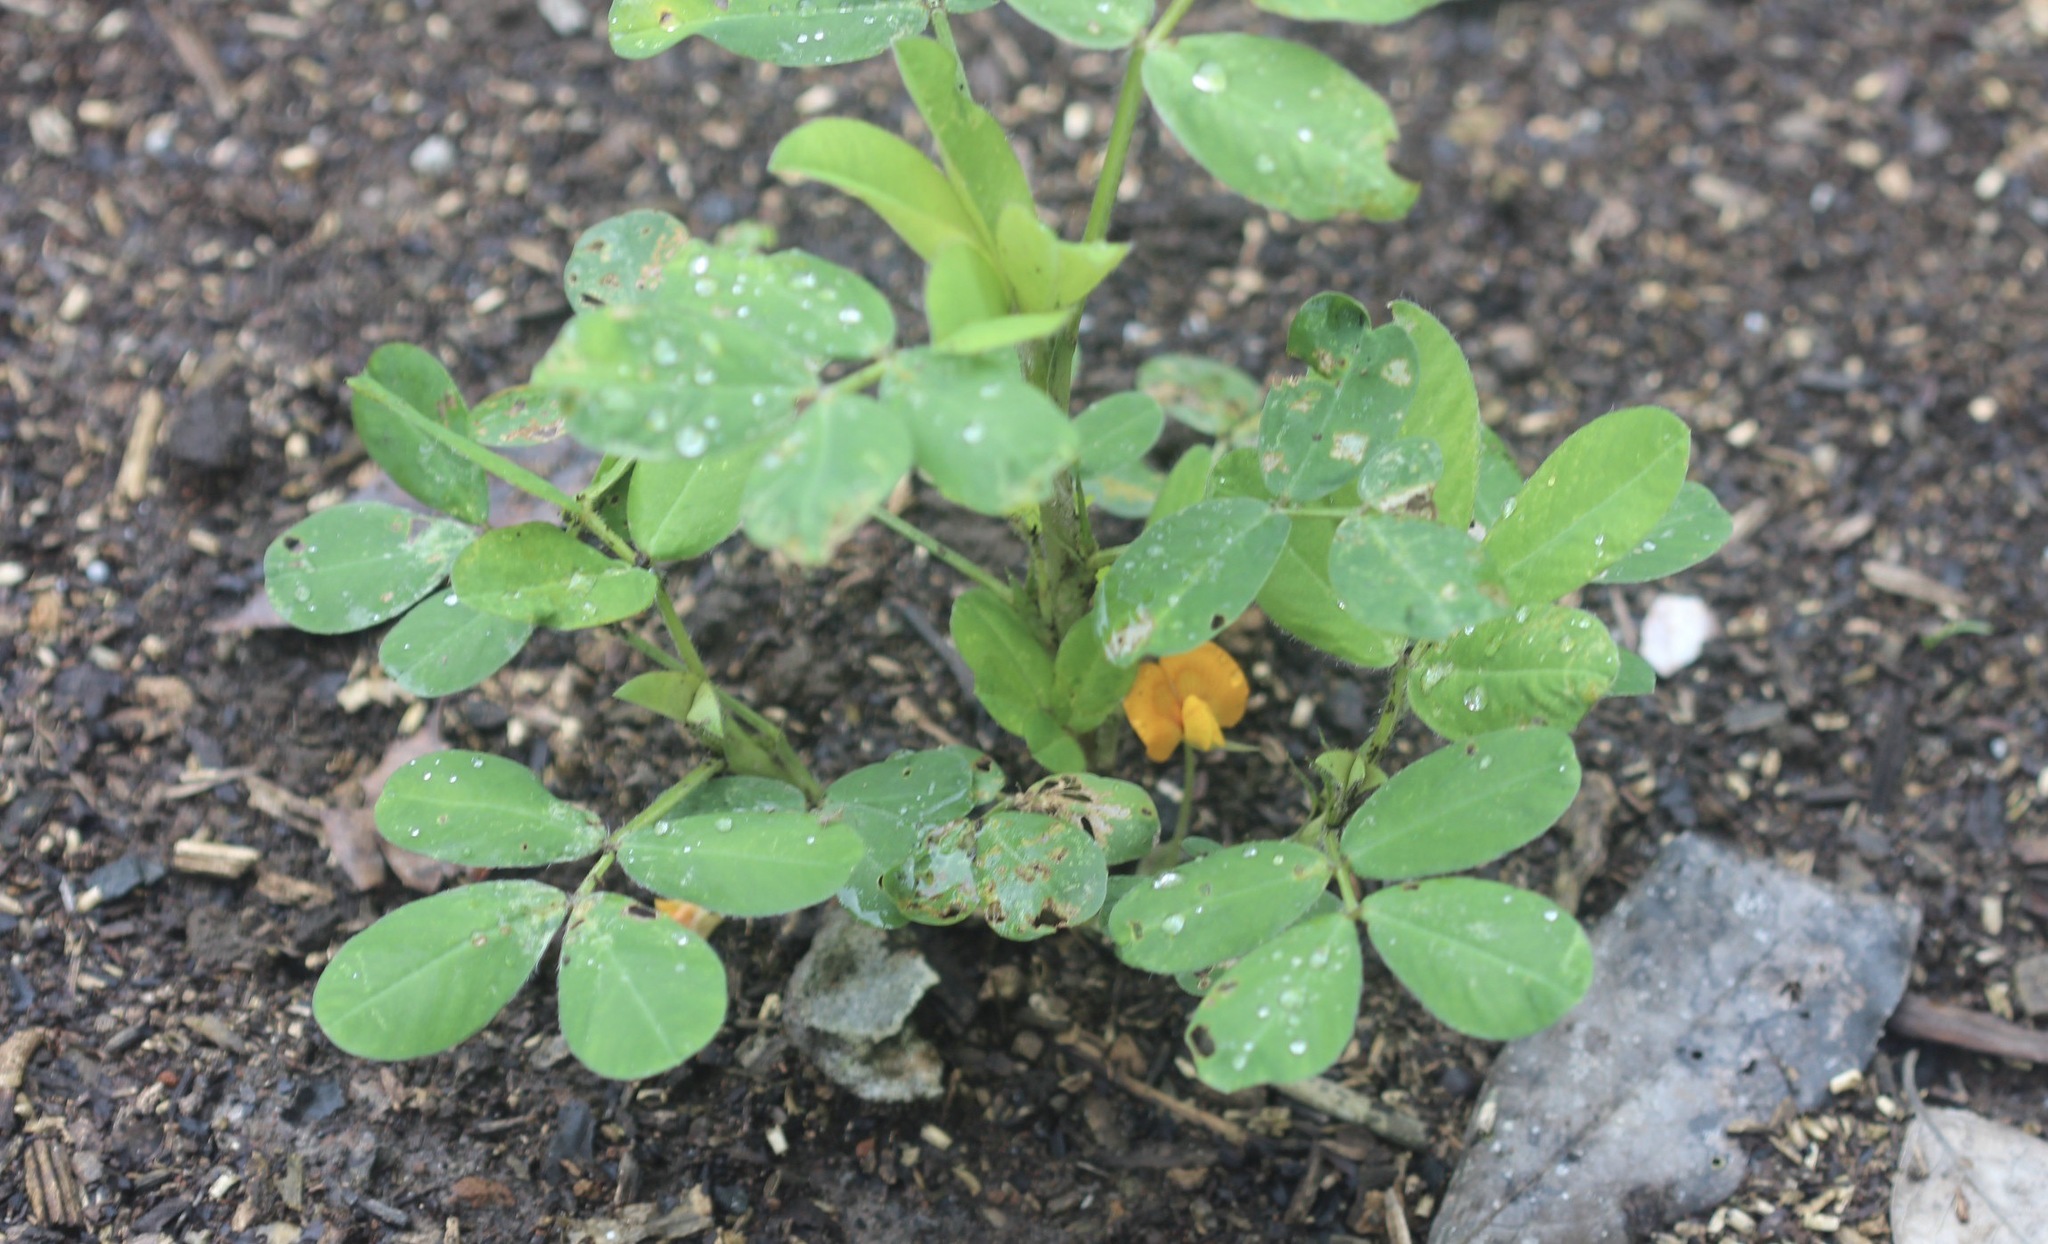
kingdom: Plantae
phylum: Tracheophyta
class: Magnoliopsida
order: Fabales
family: Fabaceae
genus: Arachis
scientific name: Arachis hypogaea
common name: Peanut
